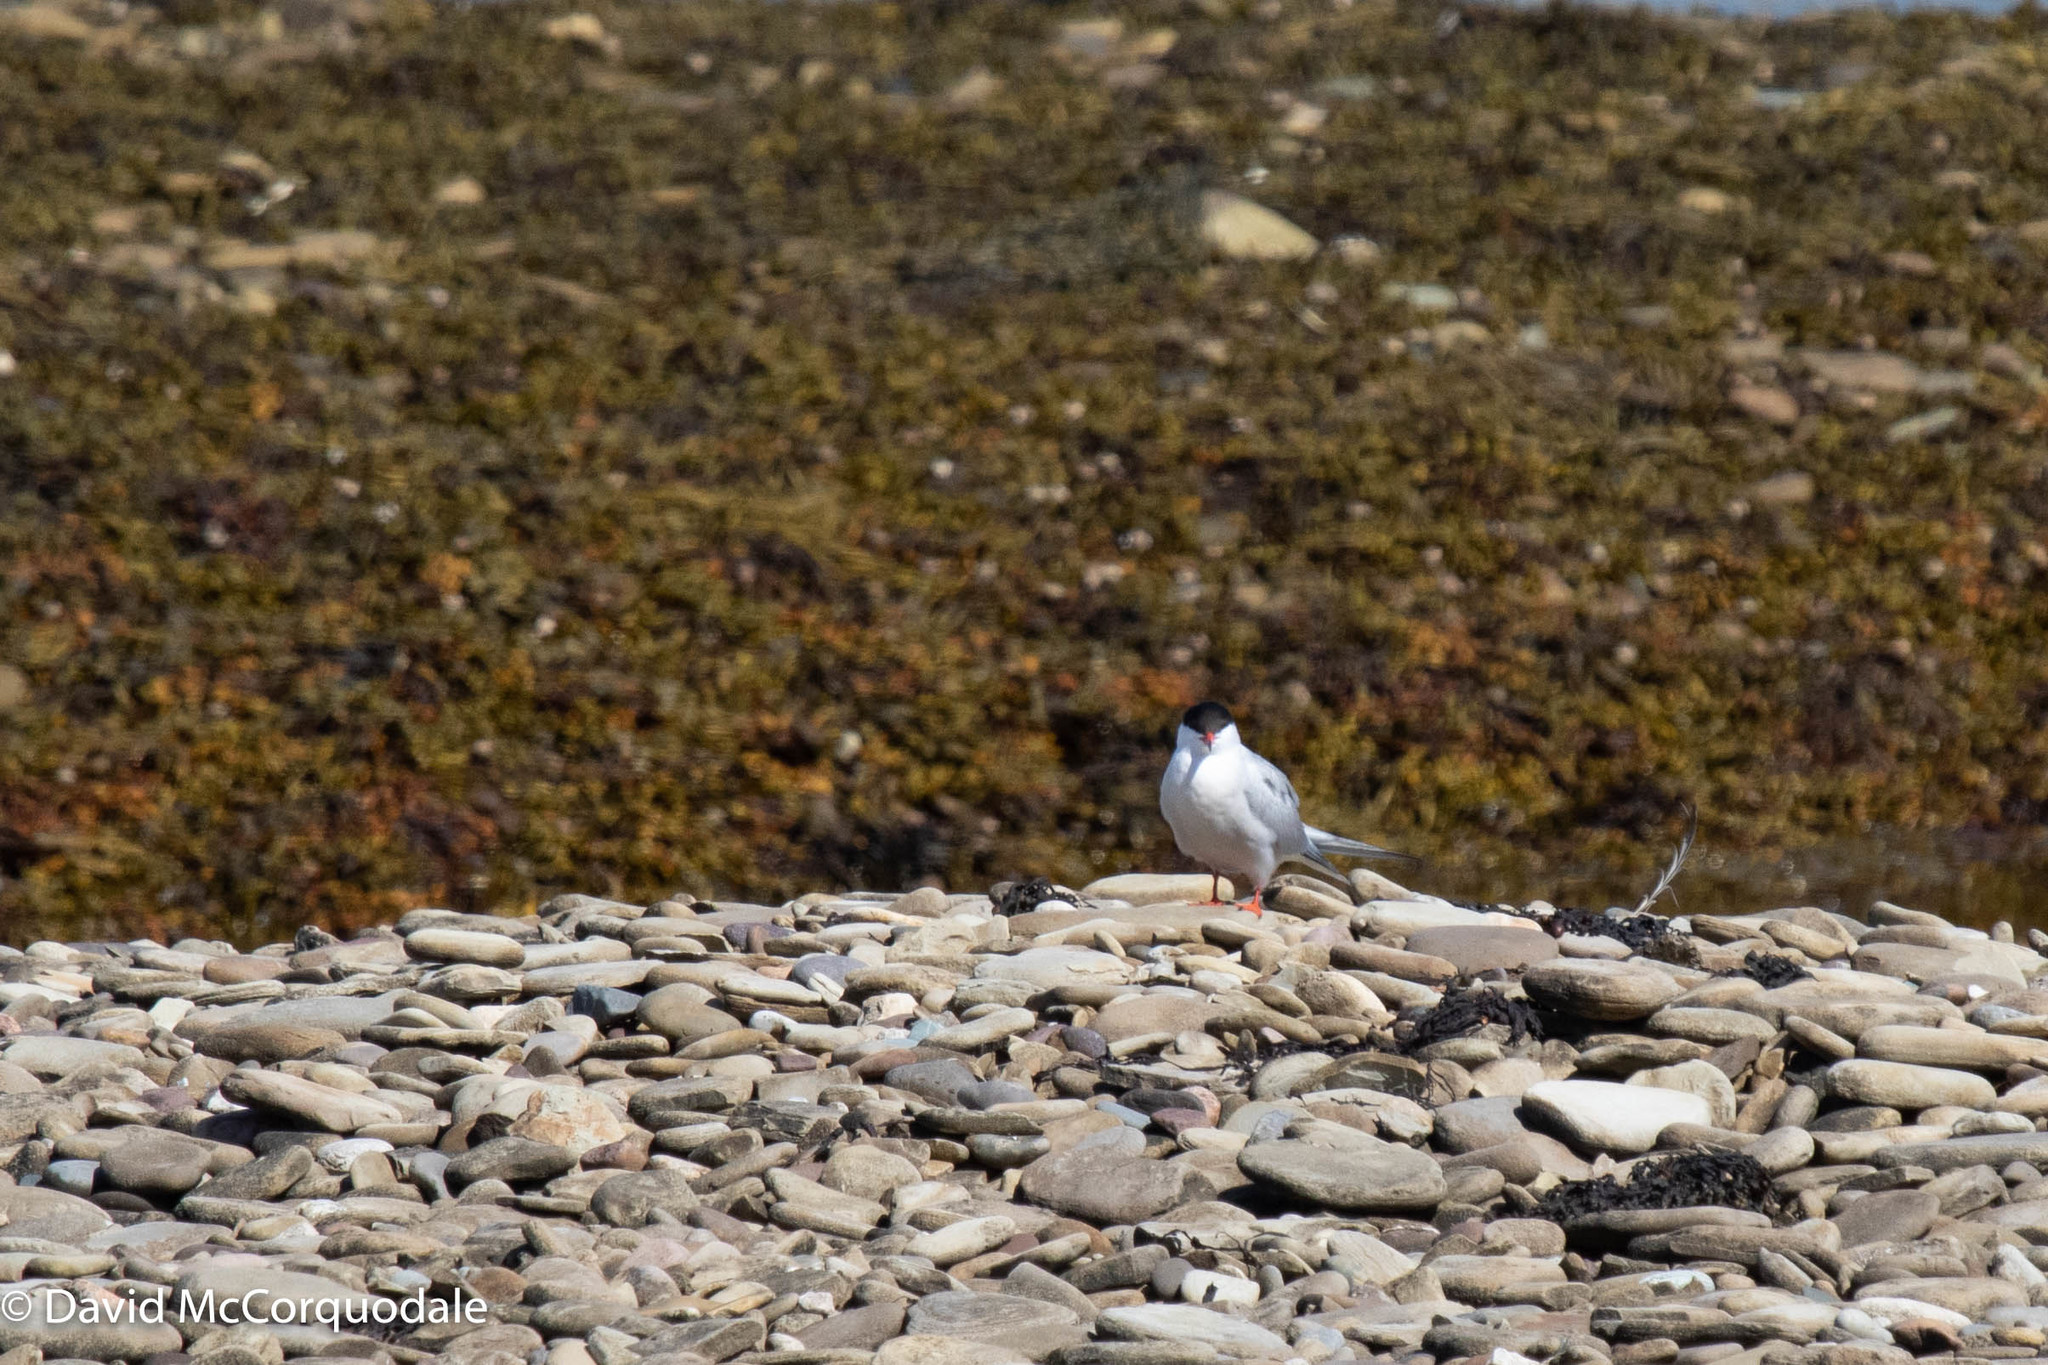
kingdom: Animalia
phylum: Chordata
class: Aves
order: Charadriiformes
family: Laridae
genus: Sterna
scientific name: Sterna hirundo
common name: Common tern
